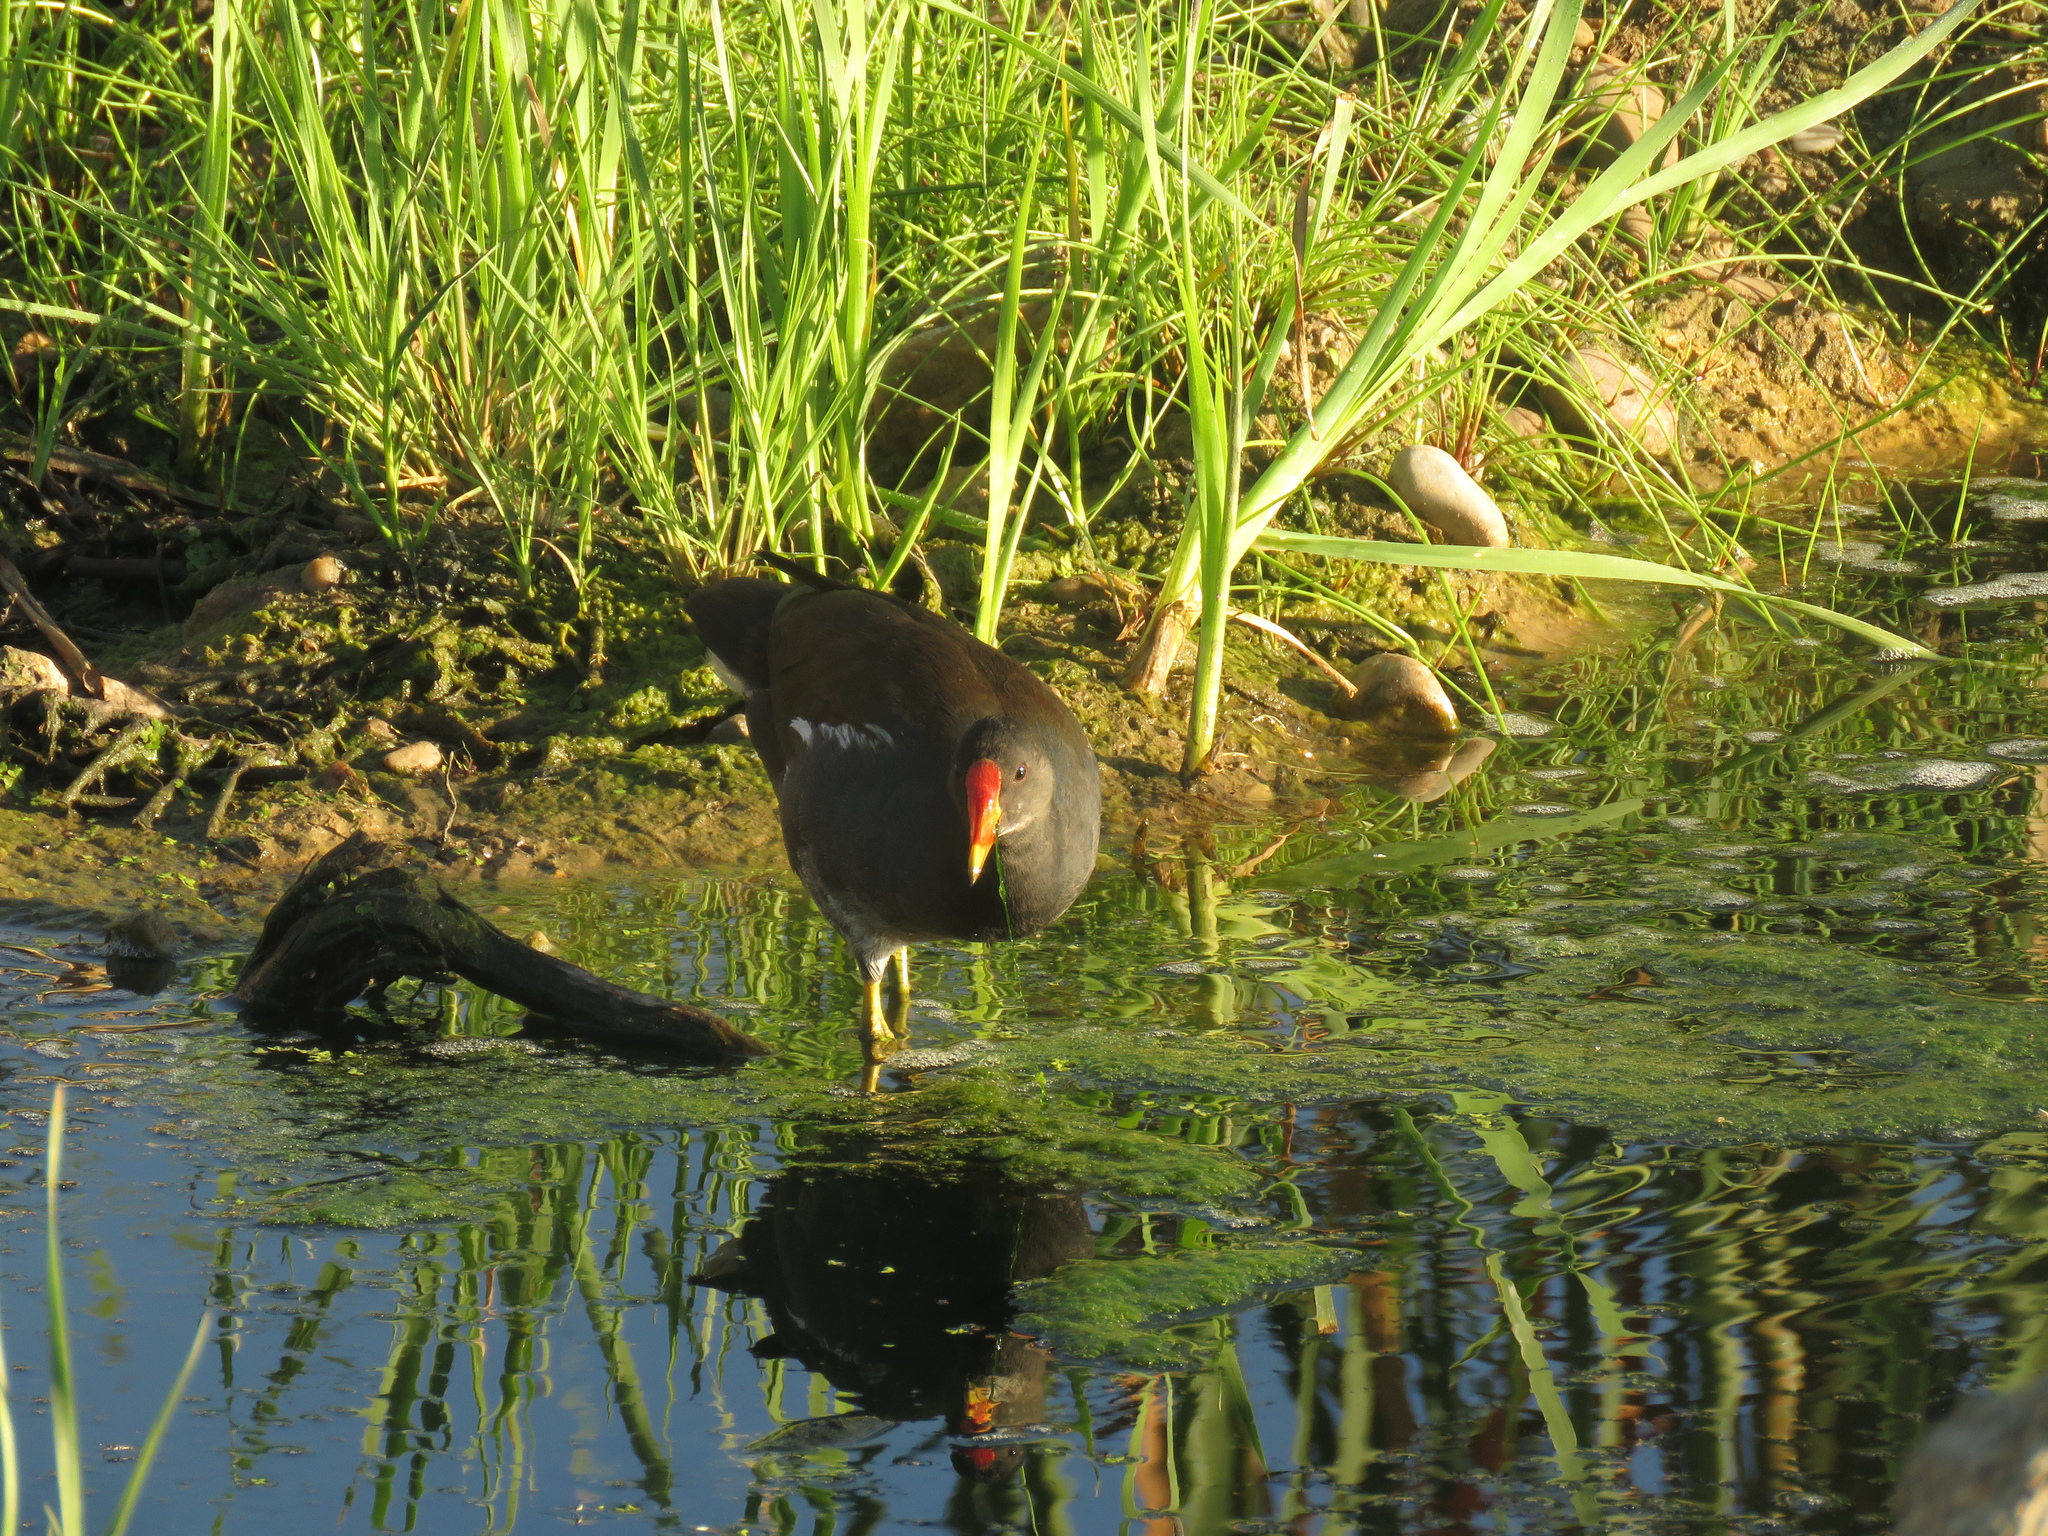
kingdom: Animalia
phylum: Chordata
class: Aves
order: Gruiformes
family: Rallidae
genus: Gallinula
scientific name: Gallinula chloropus
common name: Common moorhen
